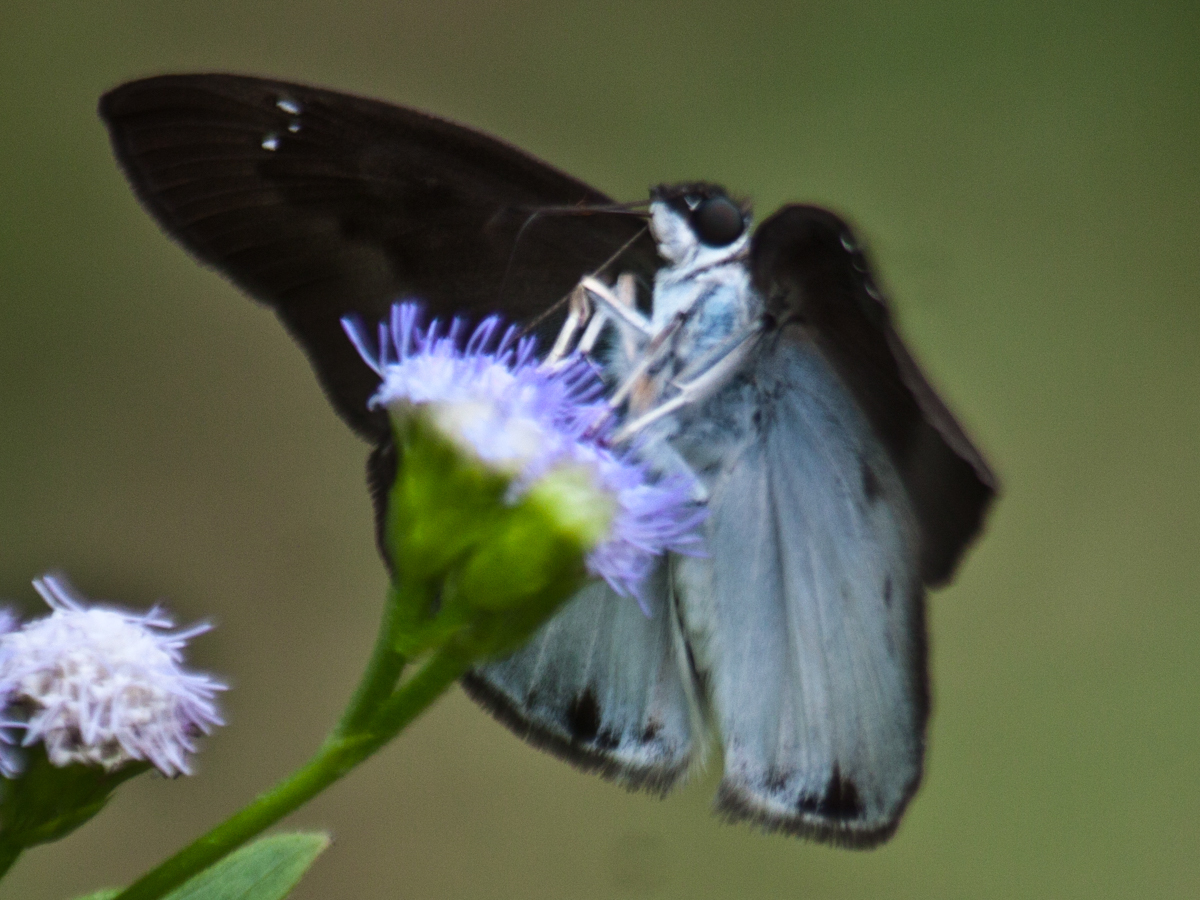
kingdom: Animalia
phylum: Arthropoda
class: Insecta
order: Lepidoptera
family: Hesperiidae
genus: Tagiades
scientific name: Tagiades gana
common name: Suffused snow flat
